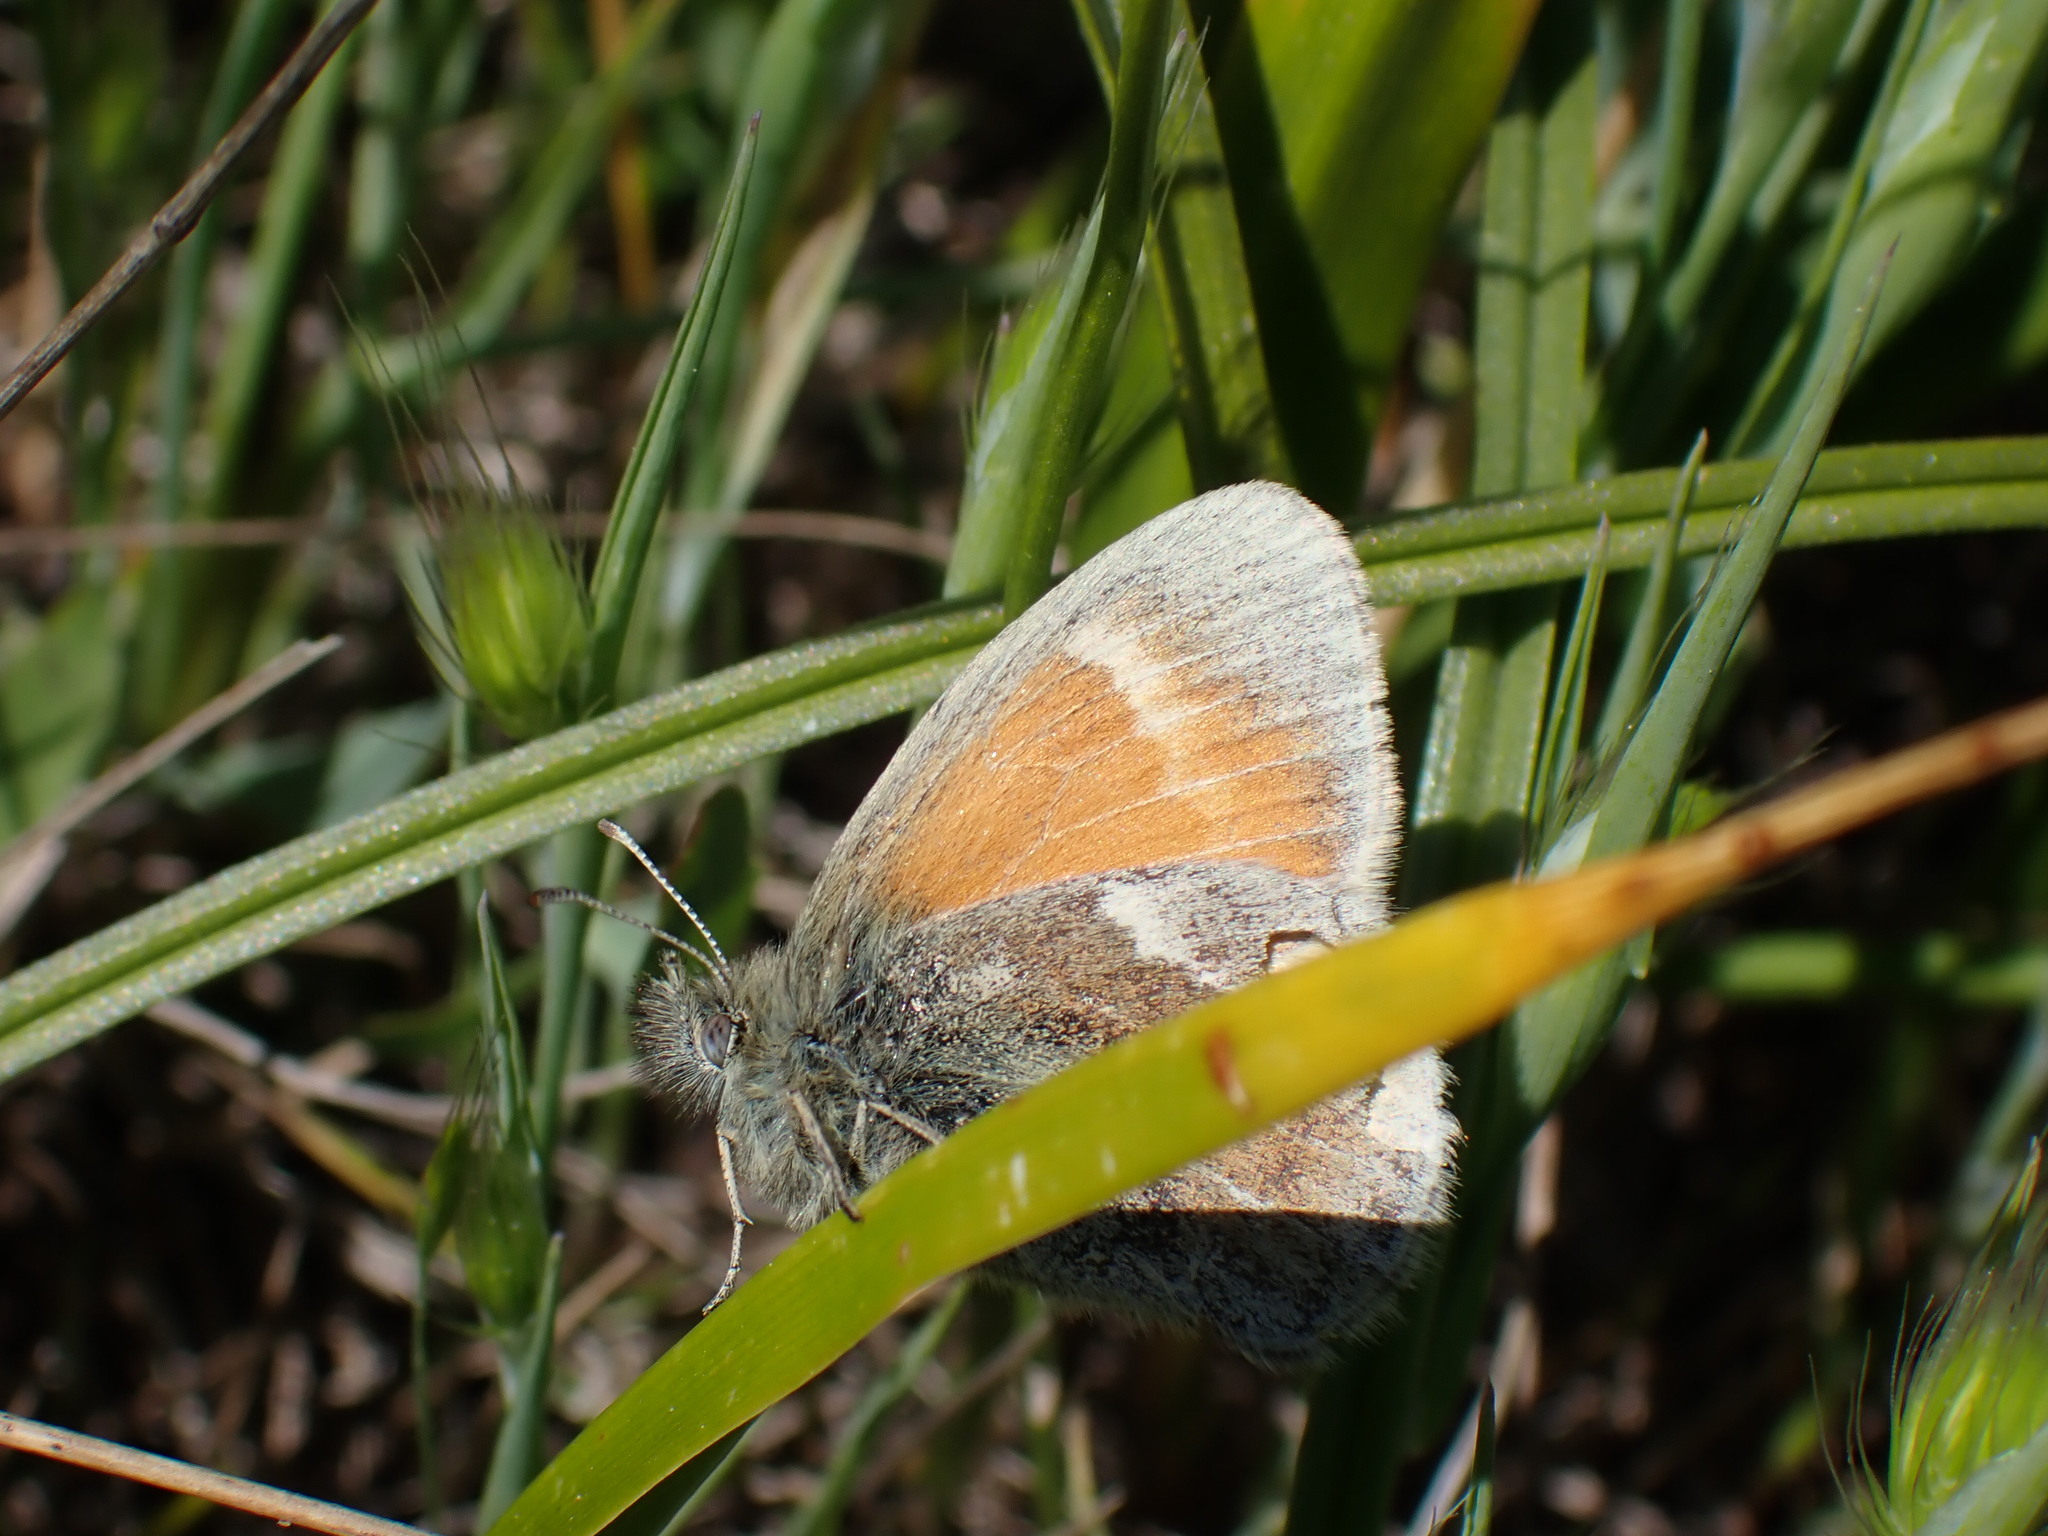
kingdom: Animalia
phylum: Arthropoda
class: Insecta
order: Lepidoptera
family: Nymphalidae
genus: Coenonympha
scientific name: Coenonympha california
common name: Common ringlet
